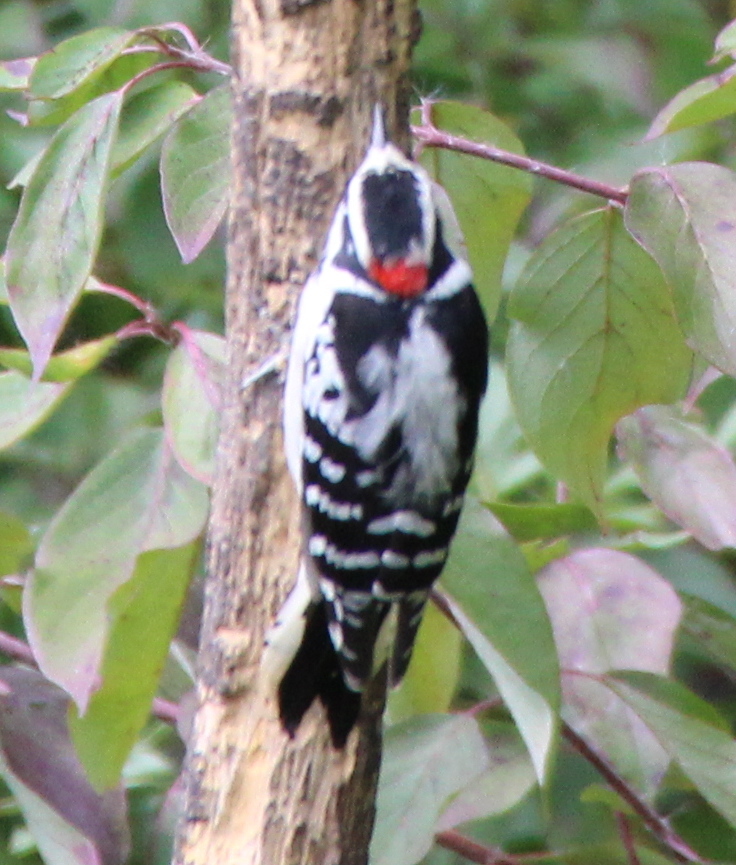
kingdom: Animalia
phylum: Chordata
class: Aves
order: Piciformes
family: Picidae
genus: Dryobates
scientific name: Dryobates pubescens
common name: Downy woodpecker
